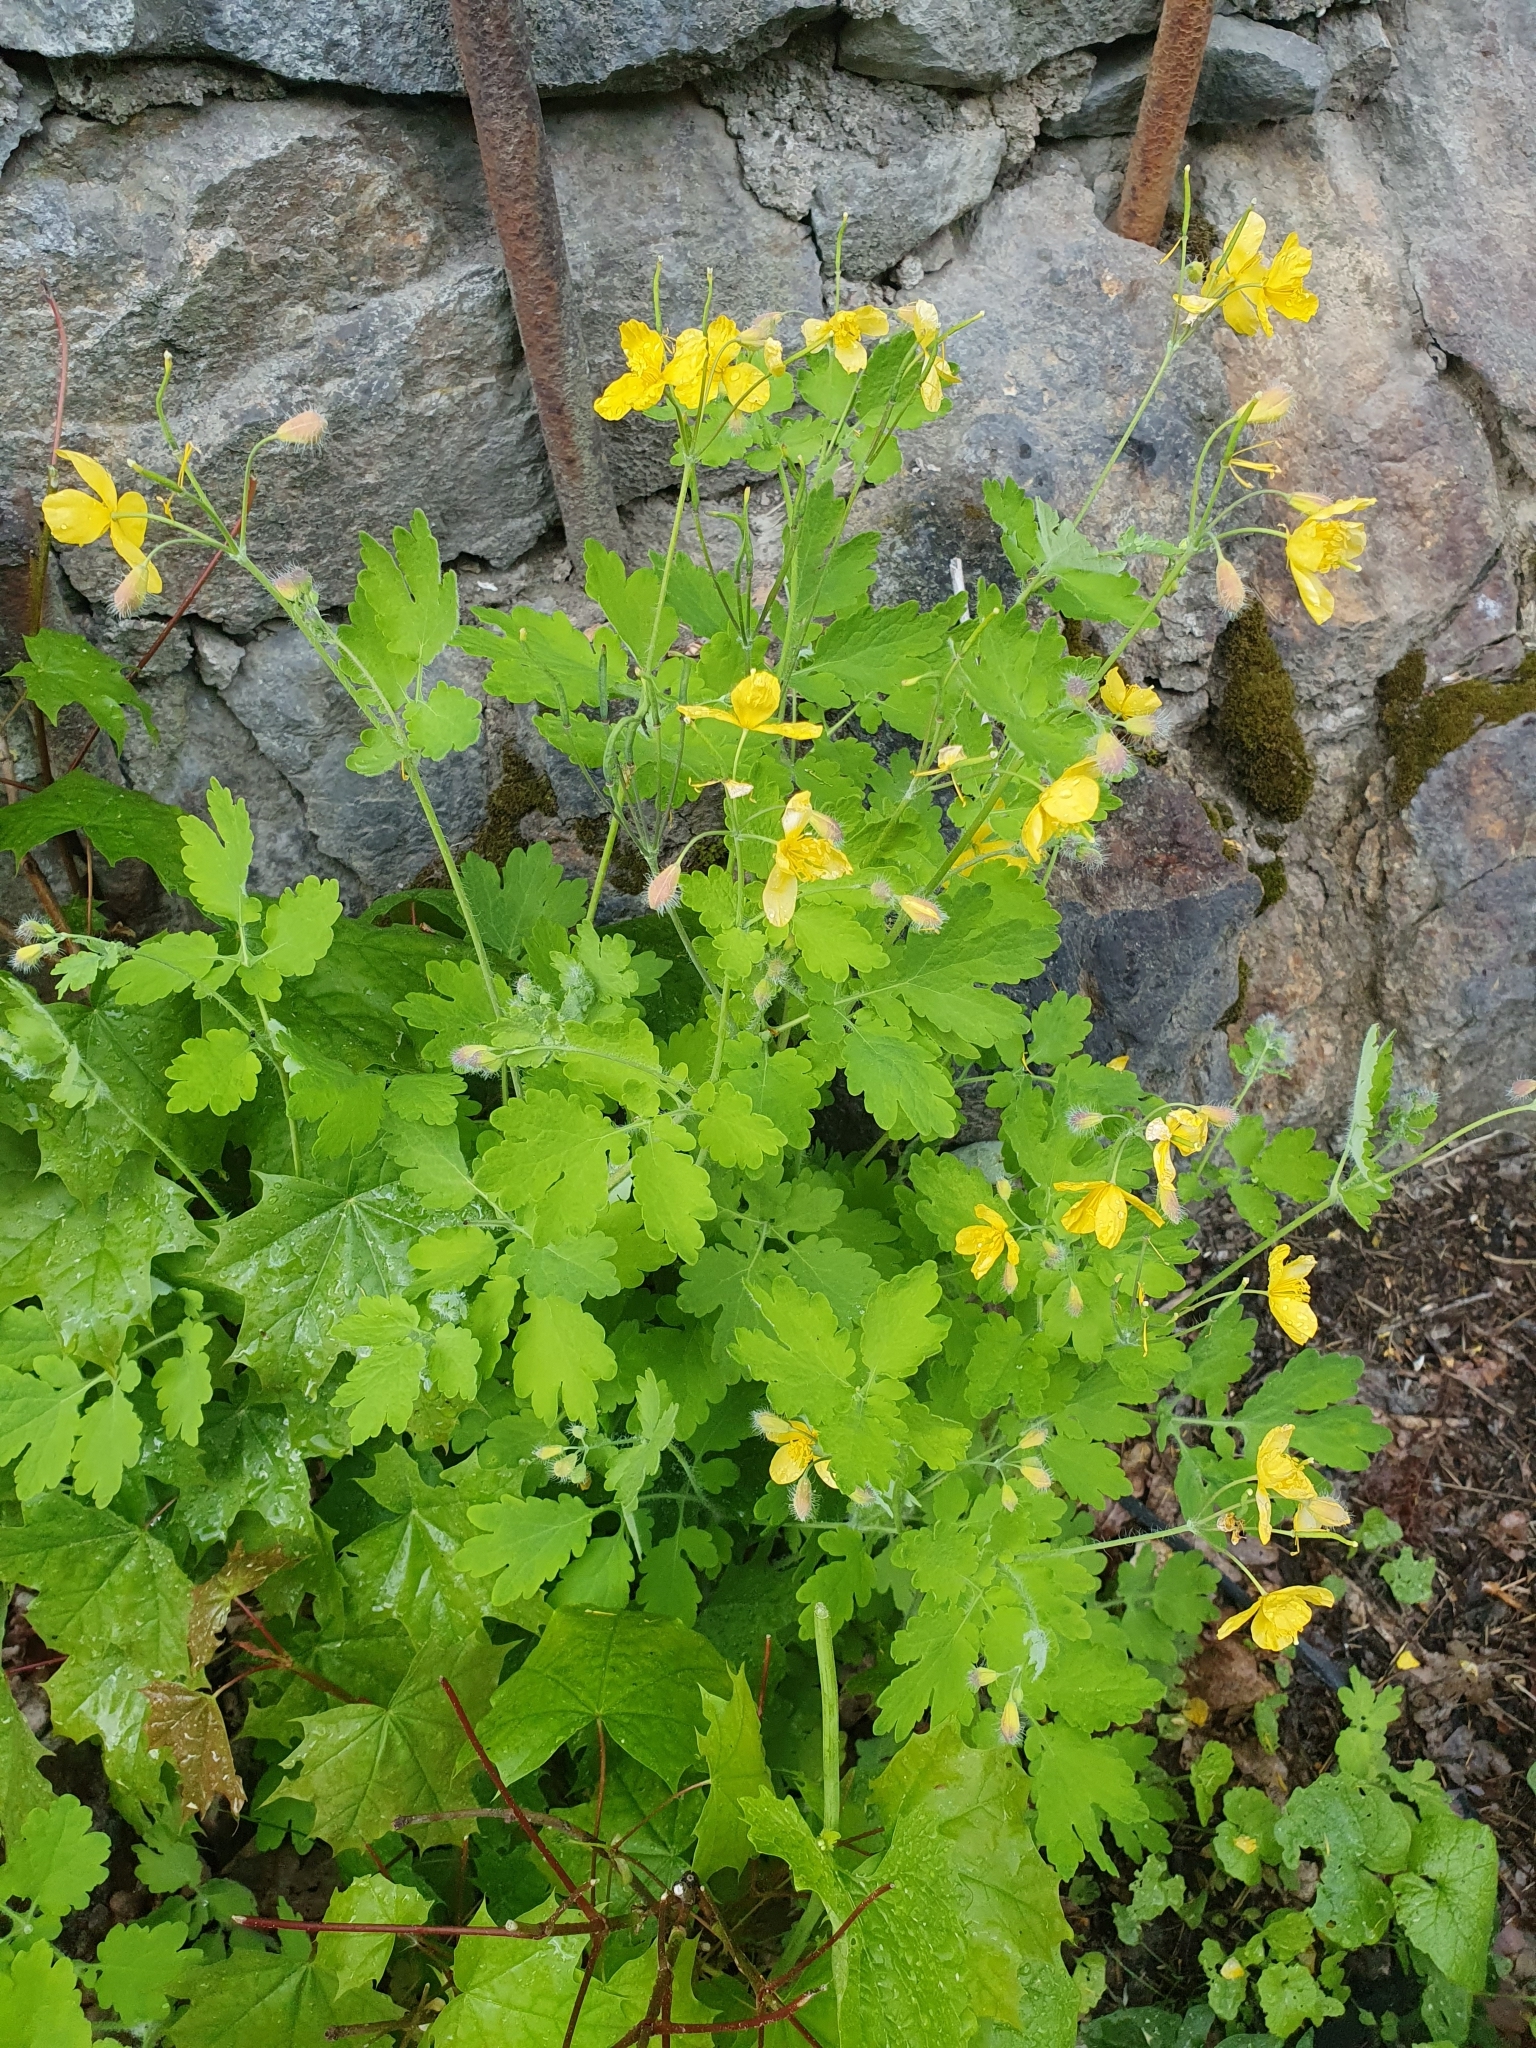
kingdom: Plantae
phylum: Tracheophyta
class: Magnoliopsida
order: Ranunculales
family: Papaveraceae
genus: Chelidonium
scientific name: Chelidonium majus
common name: Greater celandine
